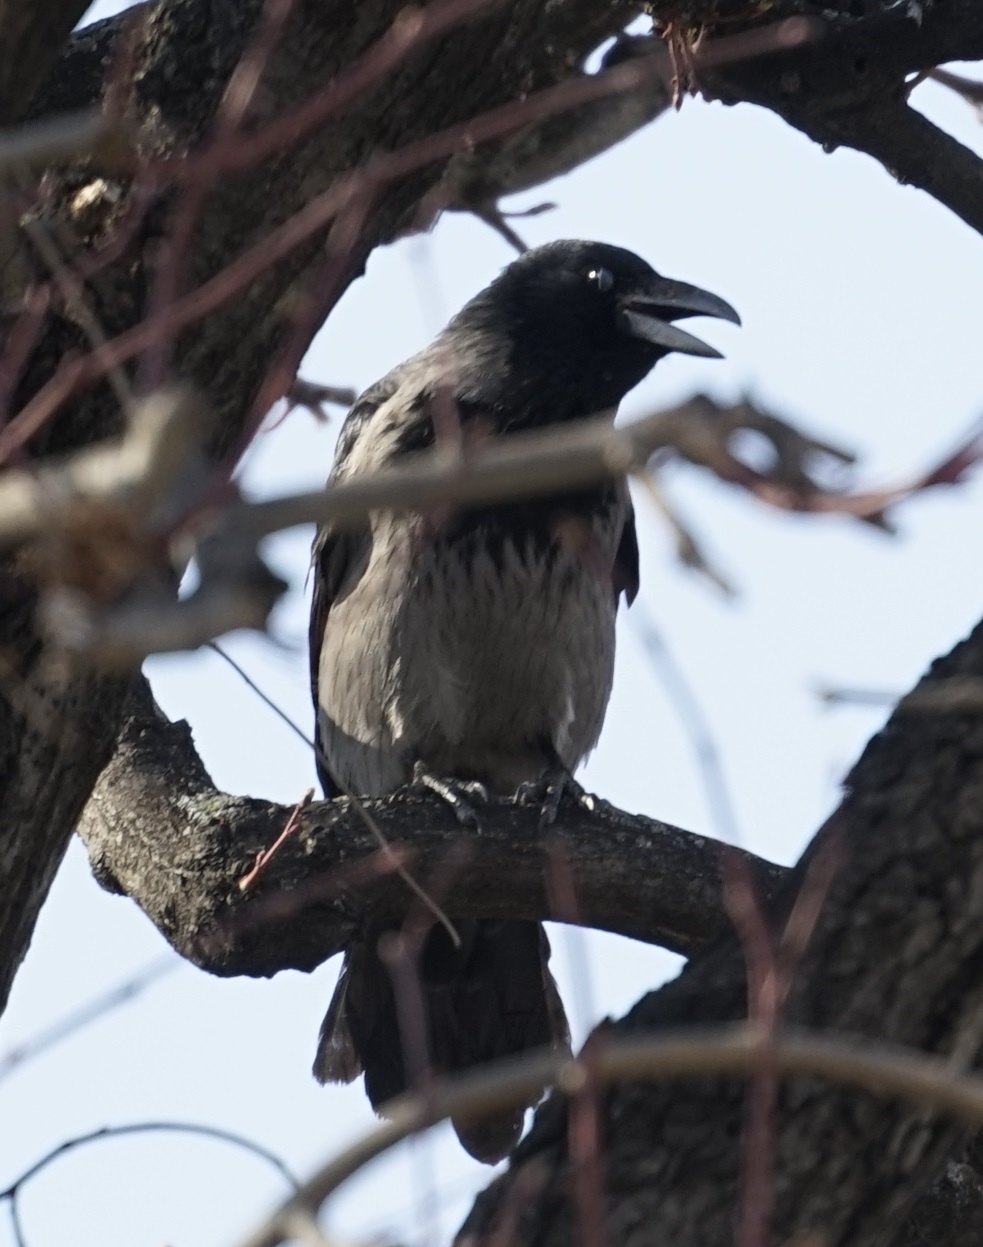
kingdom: Animalia
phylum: Chordata
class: Aves
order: Passeriformes
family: Corvidae
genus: Corvus
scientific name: Corvus cornix
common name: Hooded crow
